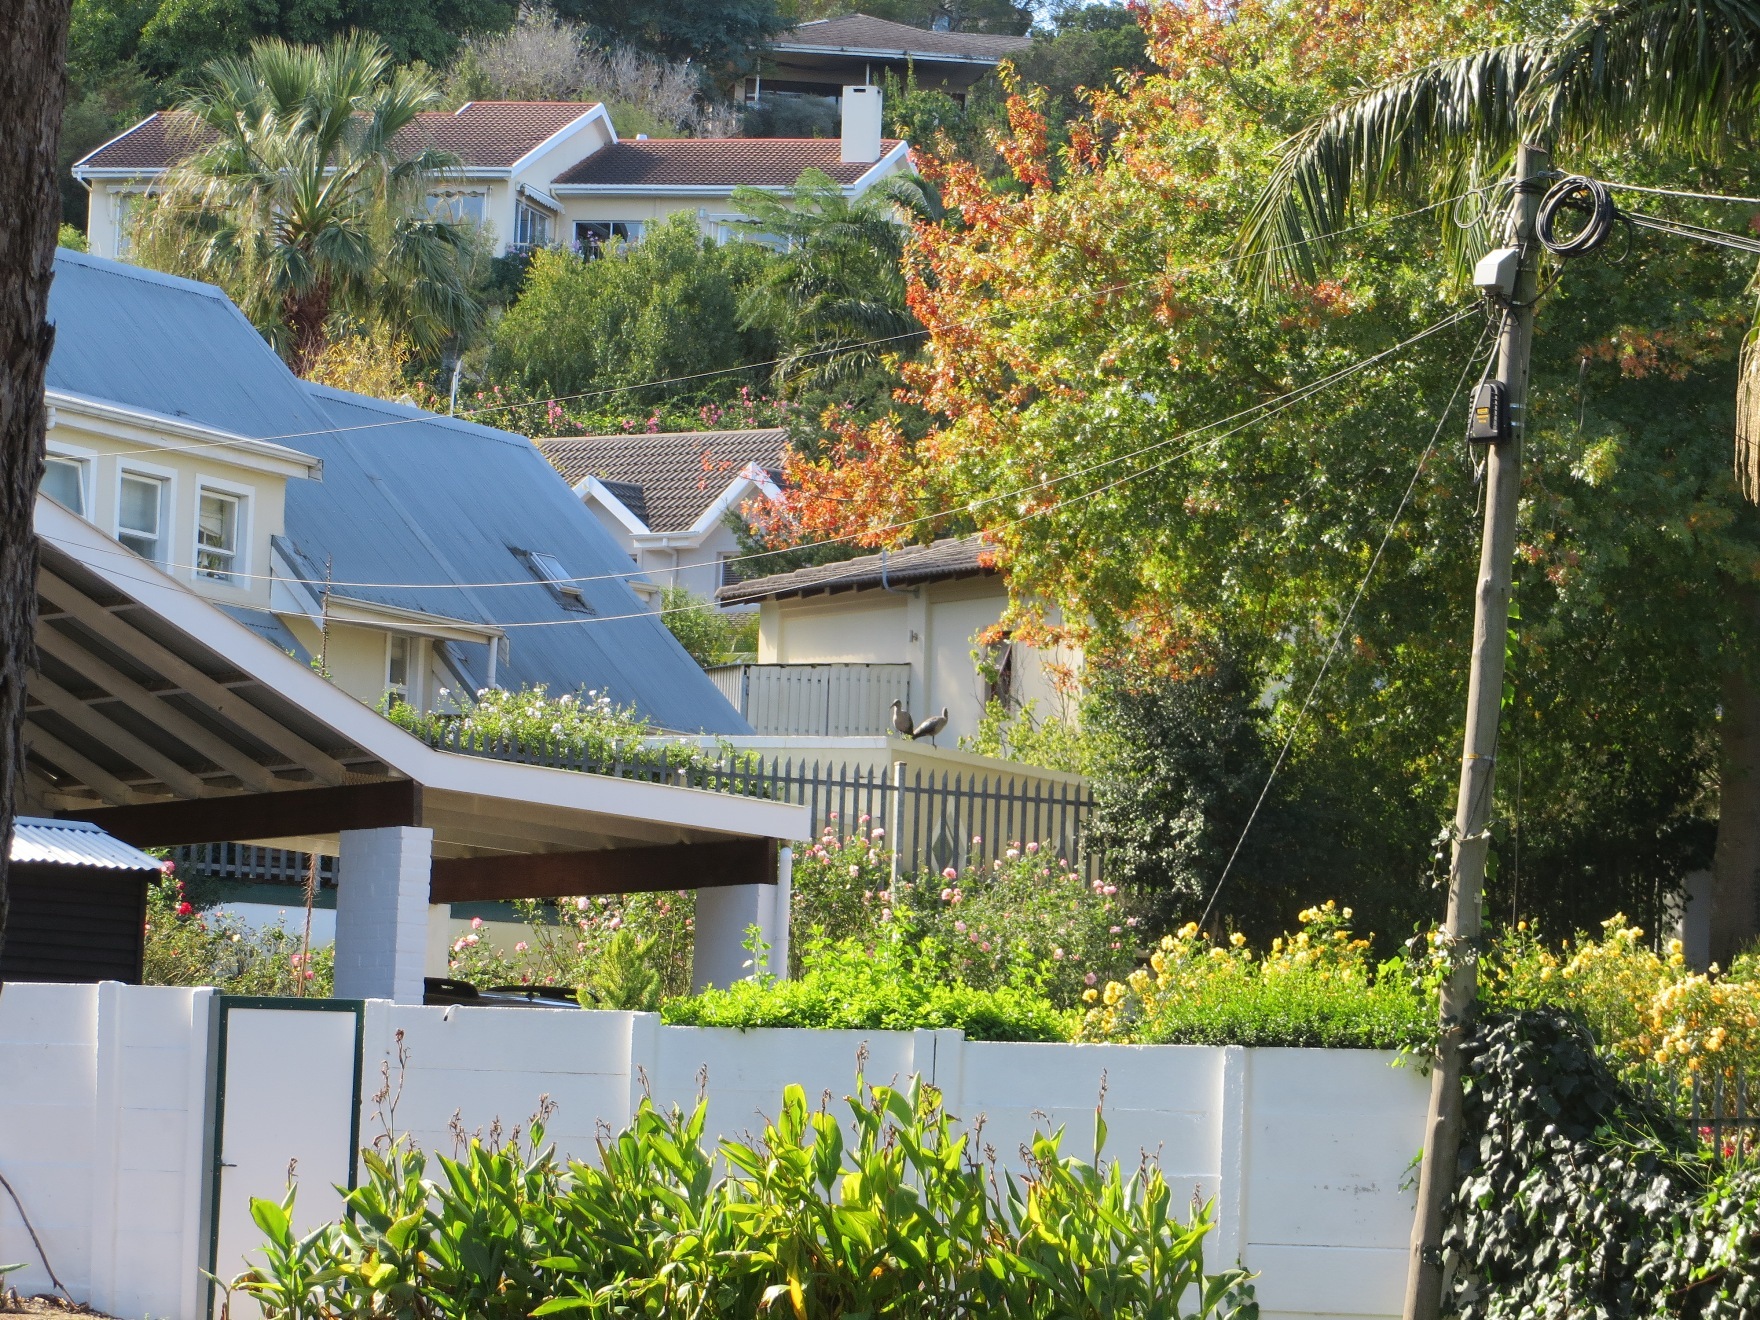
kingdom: Animalia
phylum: Chordata
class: Aves
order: Pelecaniformes
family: Threskiornithidae
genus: Bostrychia
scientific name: Bostrychia hagedash
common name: Hadada ibis
